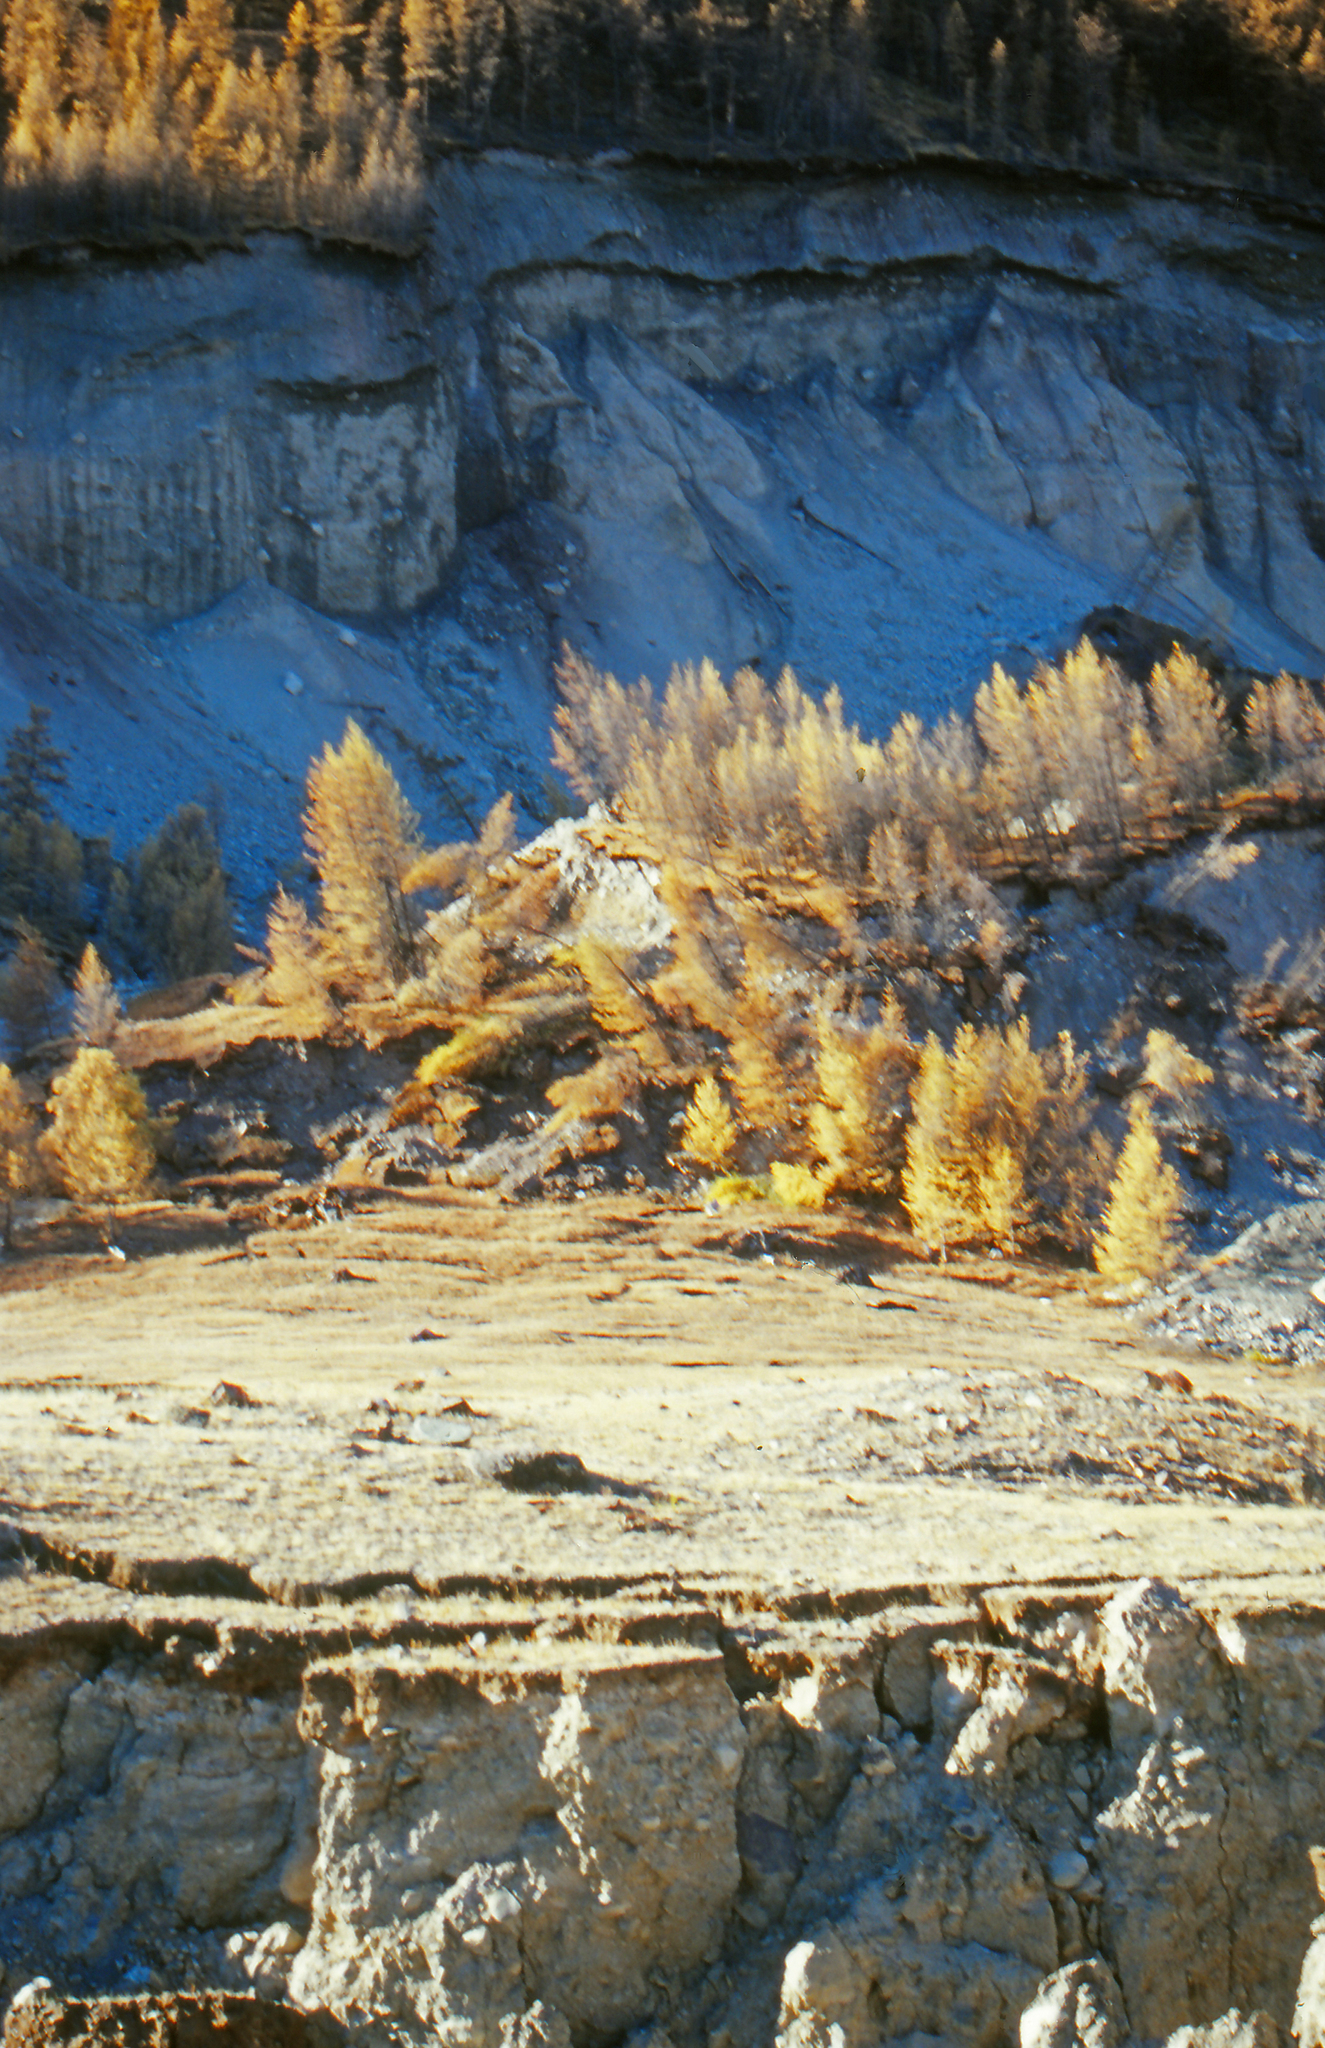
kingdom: Plantae
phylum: Tracheophyta
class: Pinopsida
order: Pinales
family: Pinaceae
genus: Larix
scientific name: Larix sibirica
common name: Siberian larch
